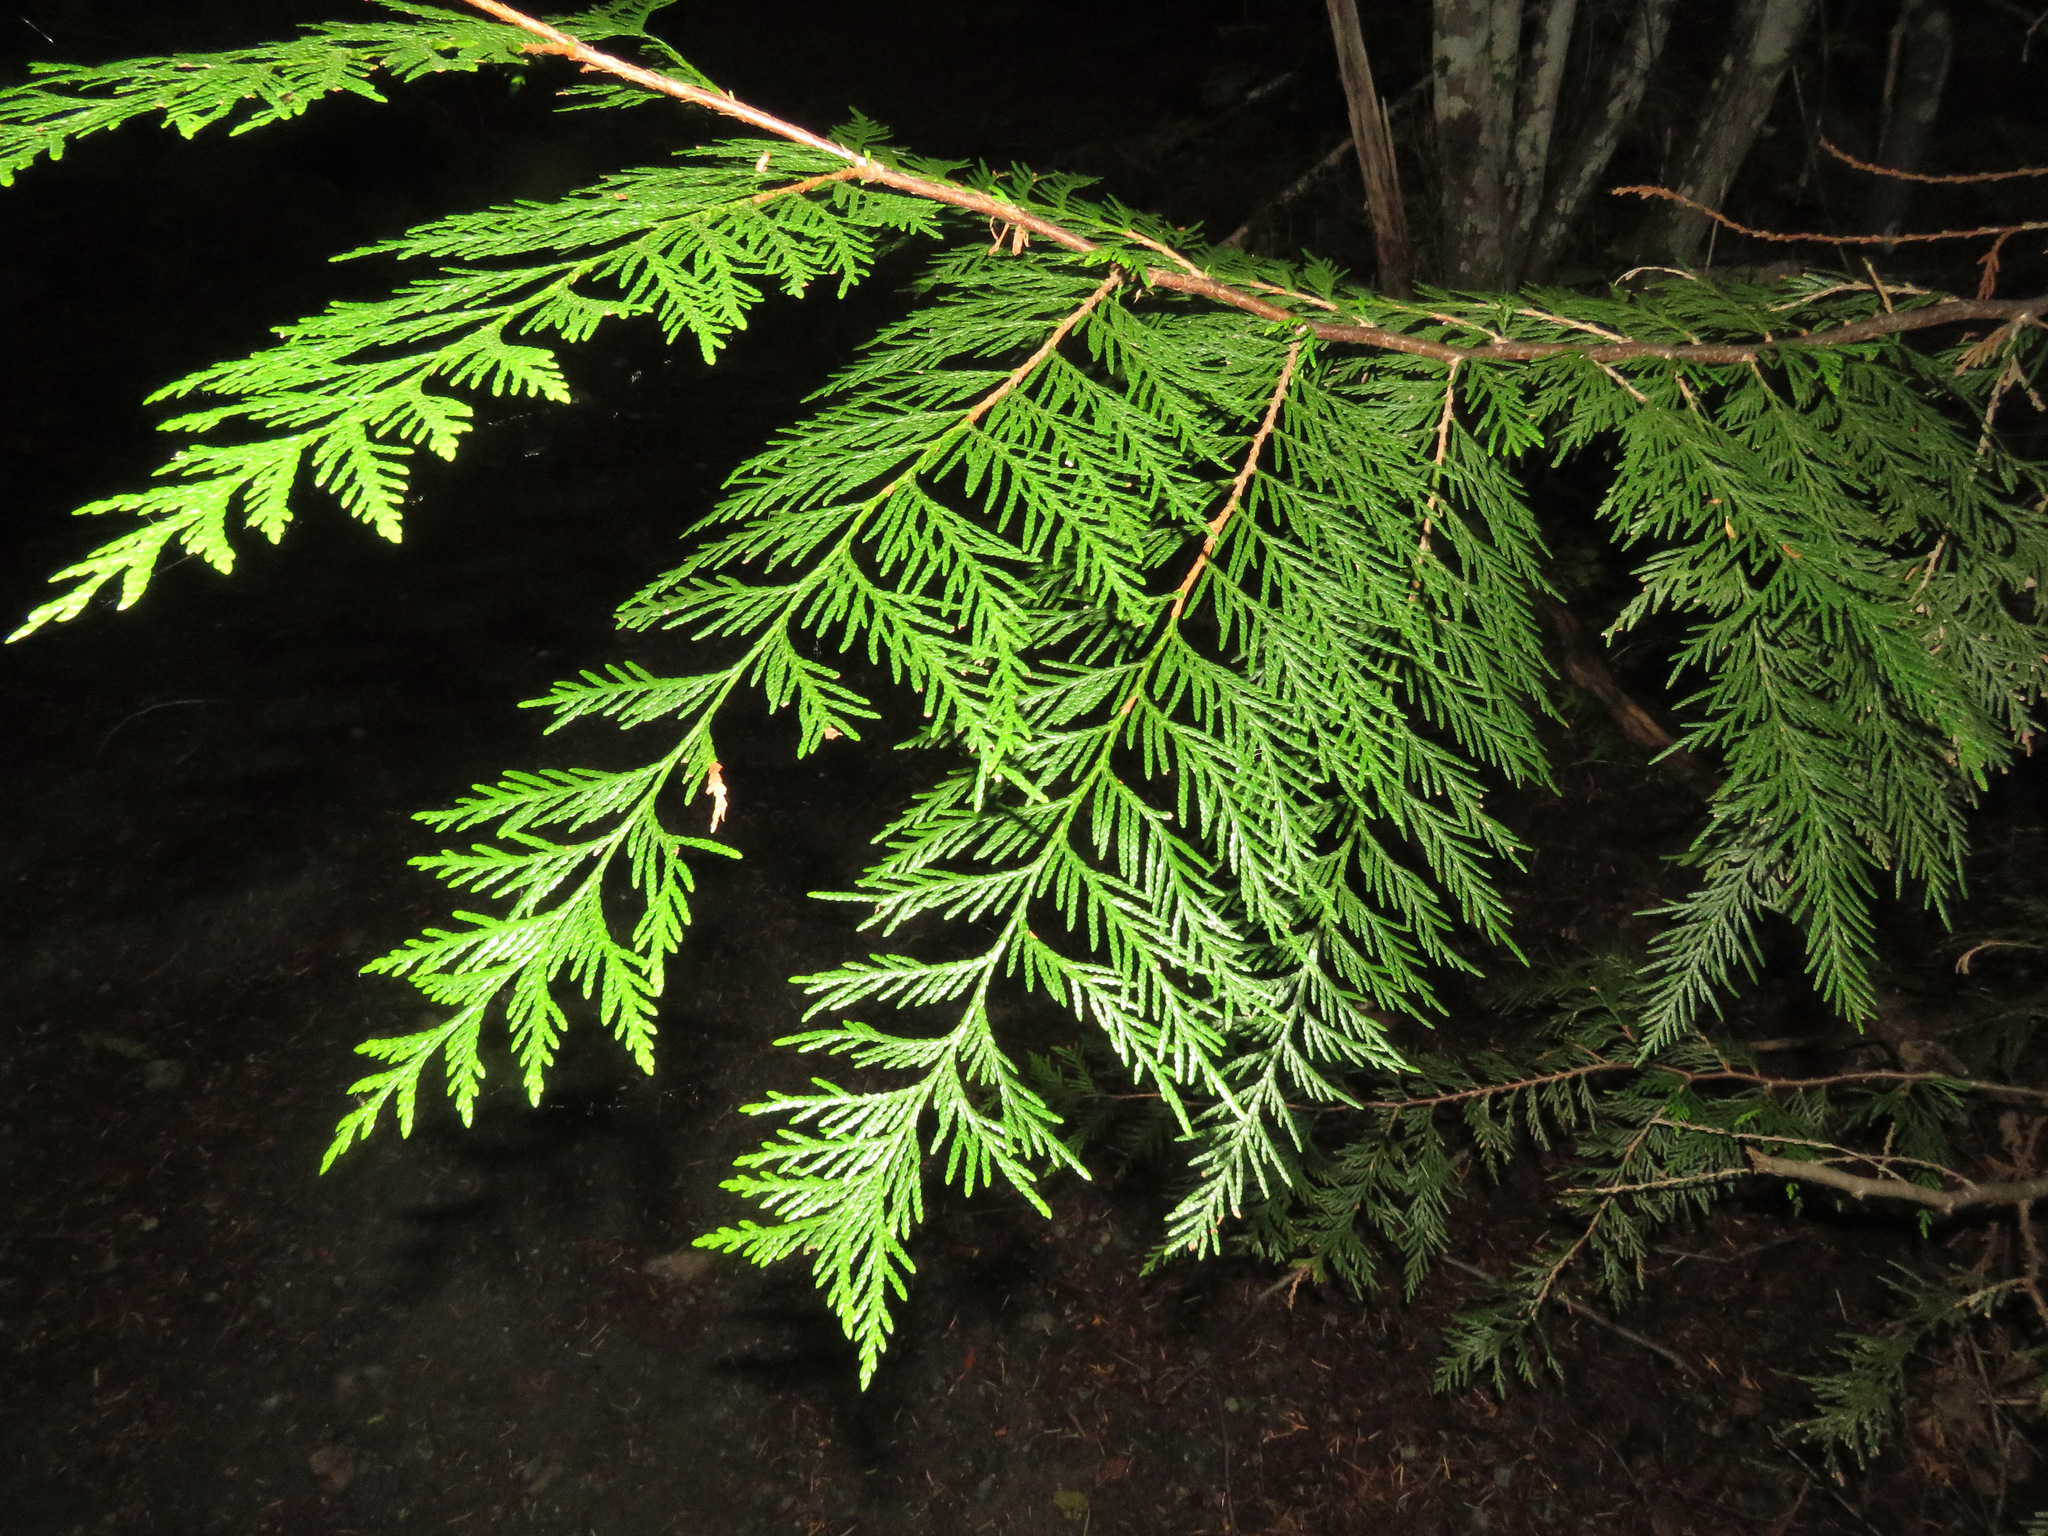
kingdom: Plantae
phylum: Tracheophyta
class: Pinopsida
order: Pinales
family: Cupressaceae
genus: Thuja
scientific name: Thuja plicata
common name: Western red-cedar
